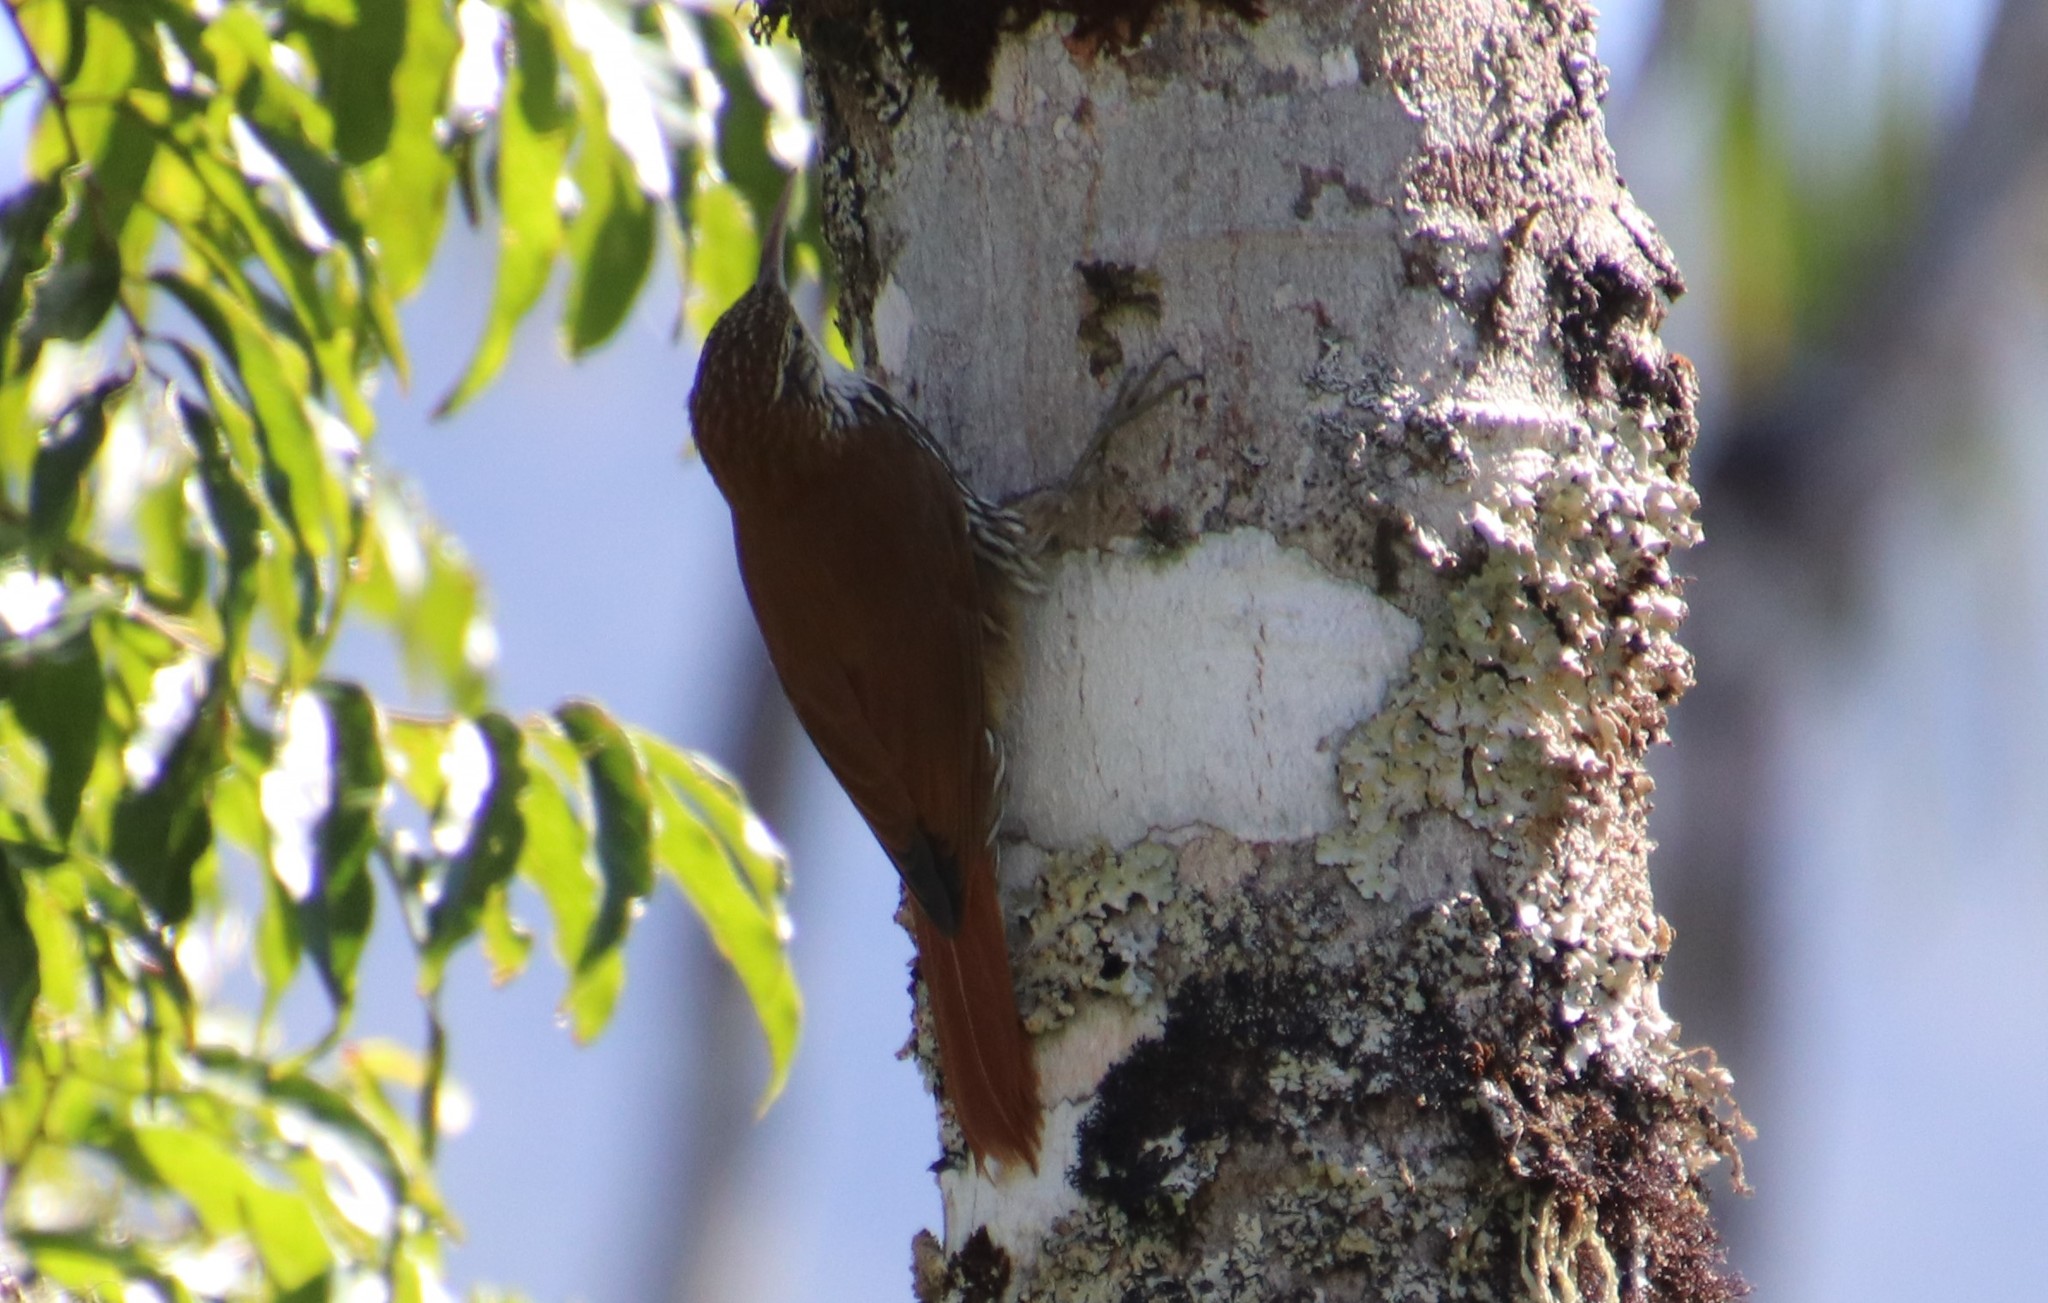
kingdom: Animalia
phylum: Chordata
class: Aves
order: Passeriformes
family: Furnariidae
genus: Lepidocolaptes
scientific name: Lepidocolaptes squamatus
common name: Scaled woodcreeper
